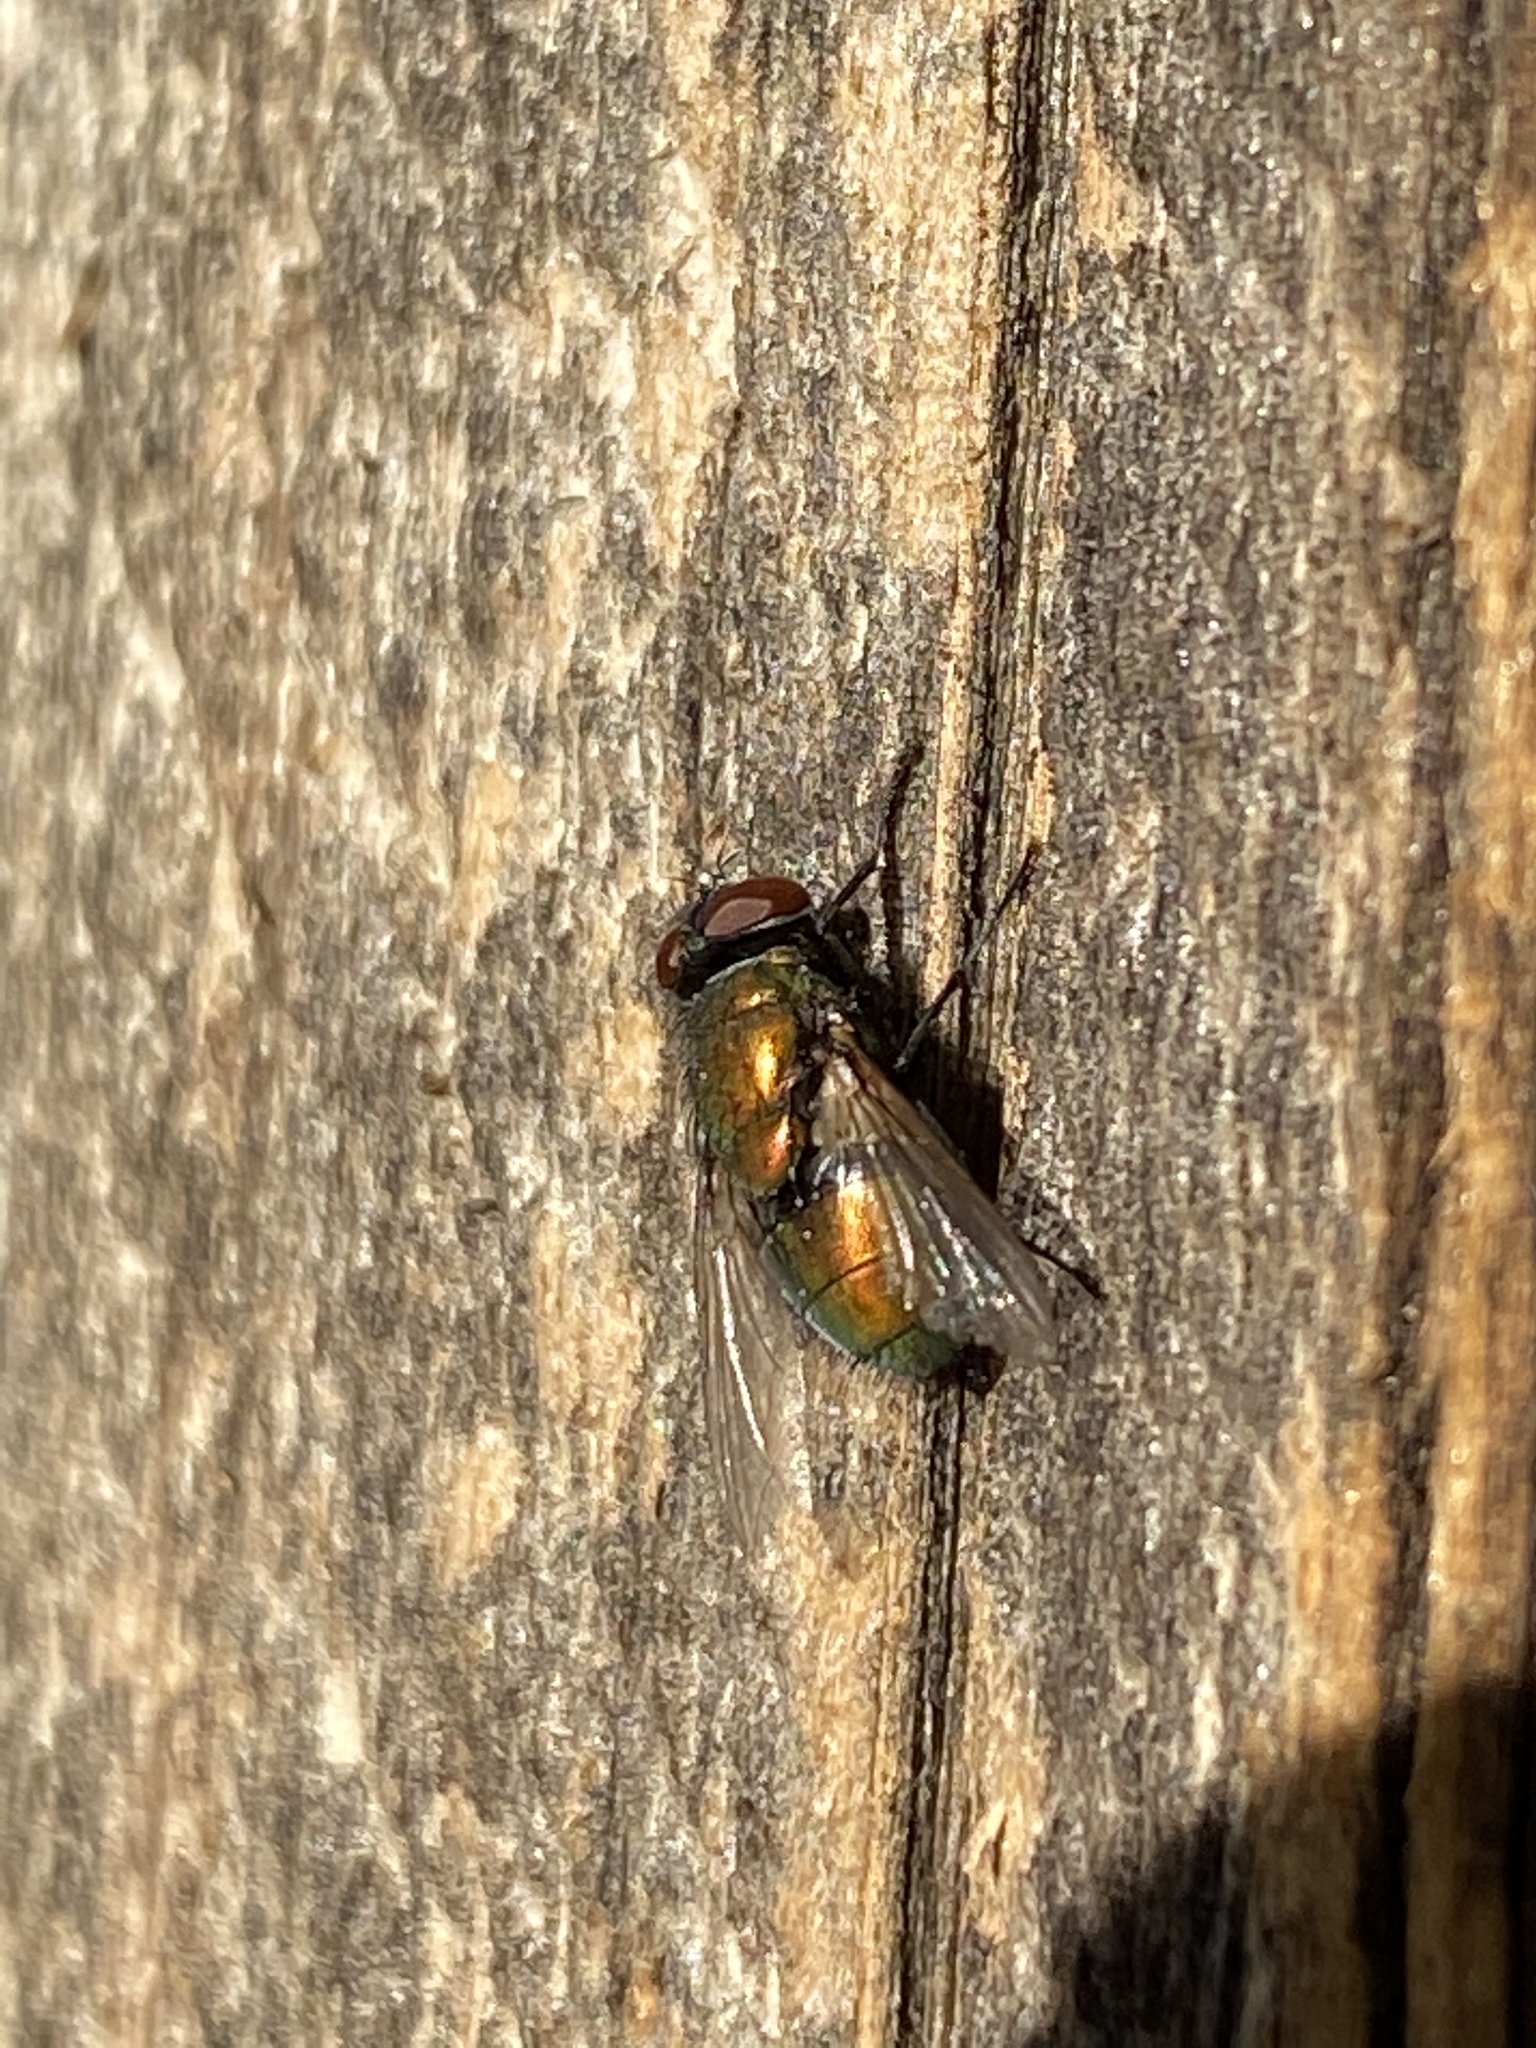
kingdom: Animalia
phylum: Arthropoda
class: Insecta
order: Diptera
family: Calliphoridae
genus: Lucilia
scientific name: Lucilia sericata
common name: Blow fly
